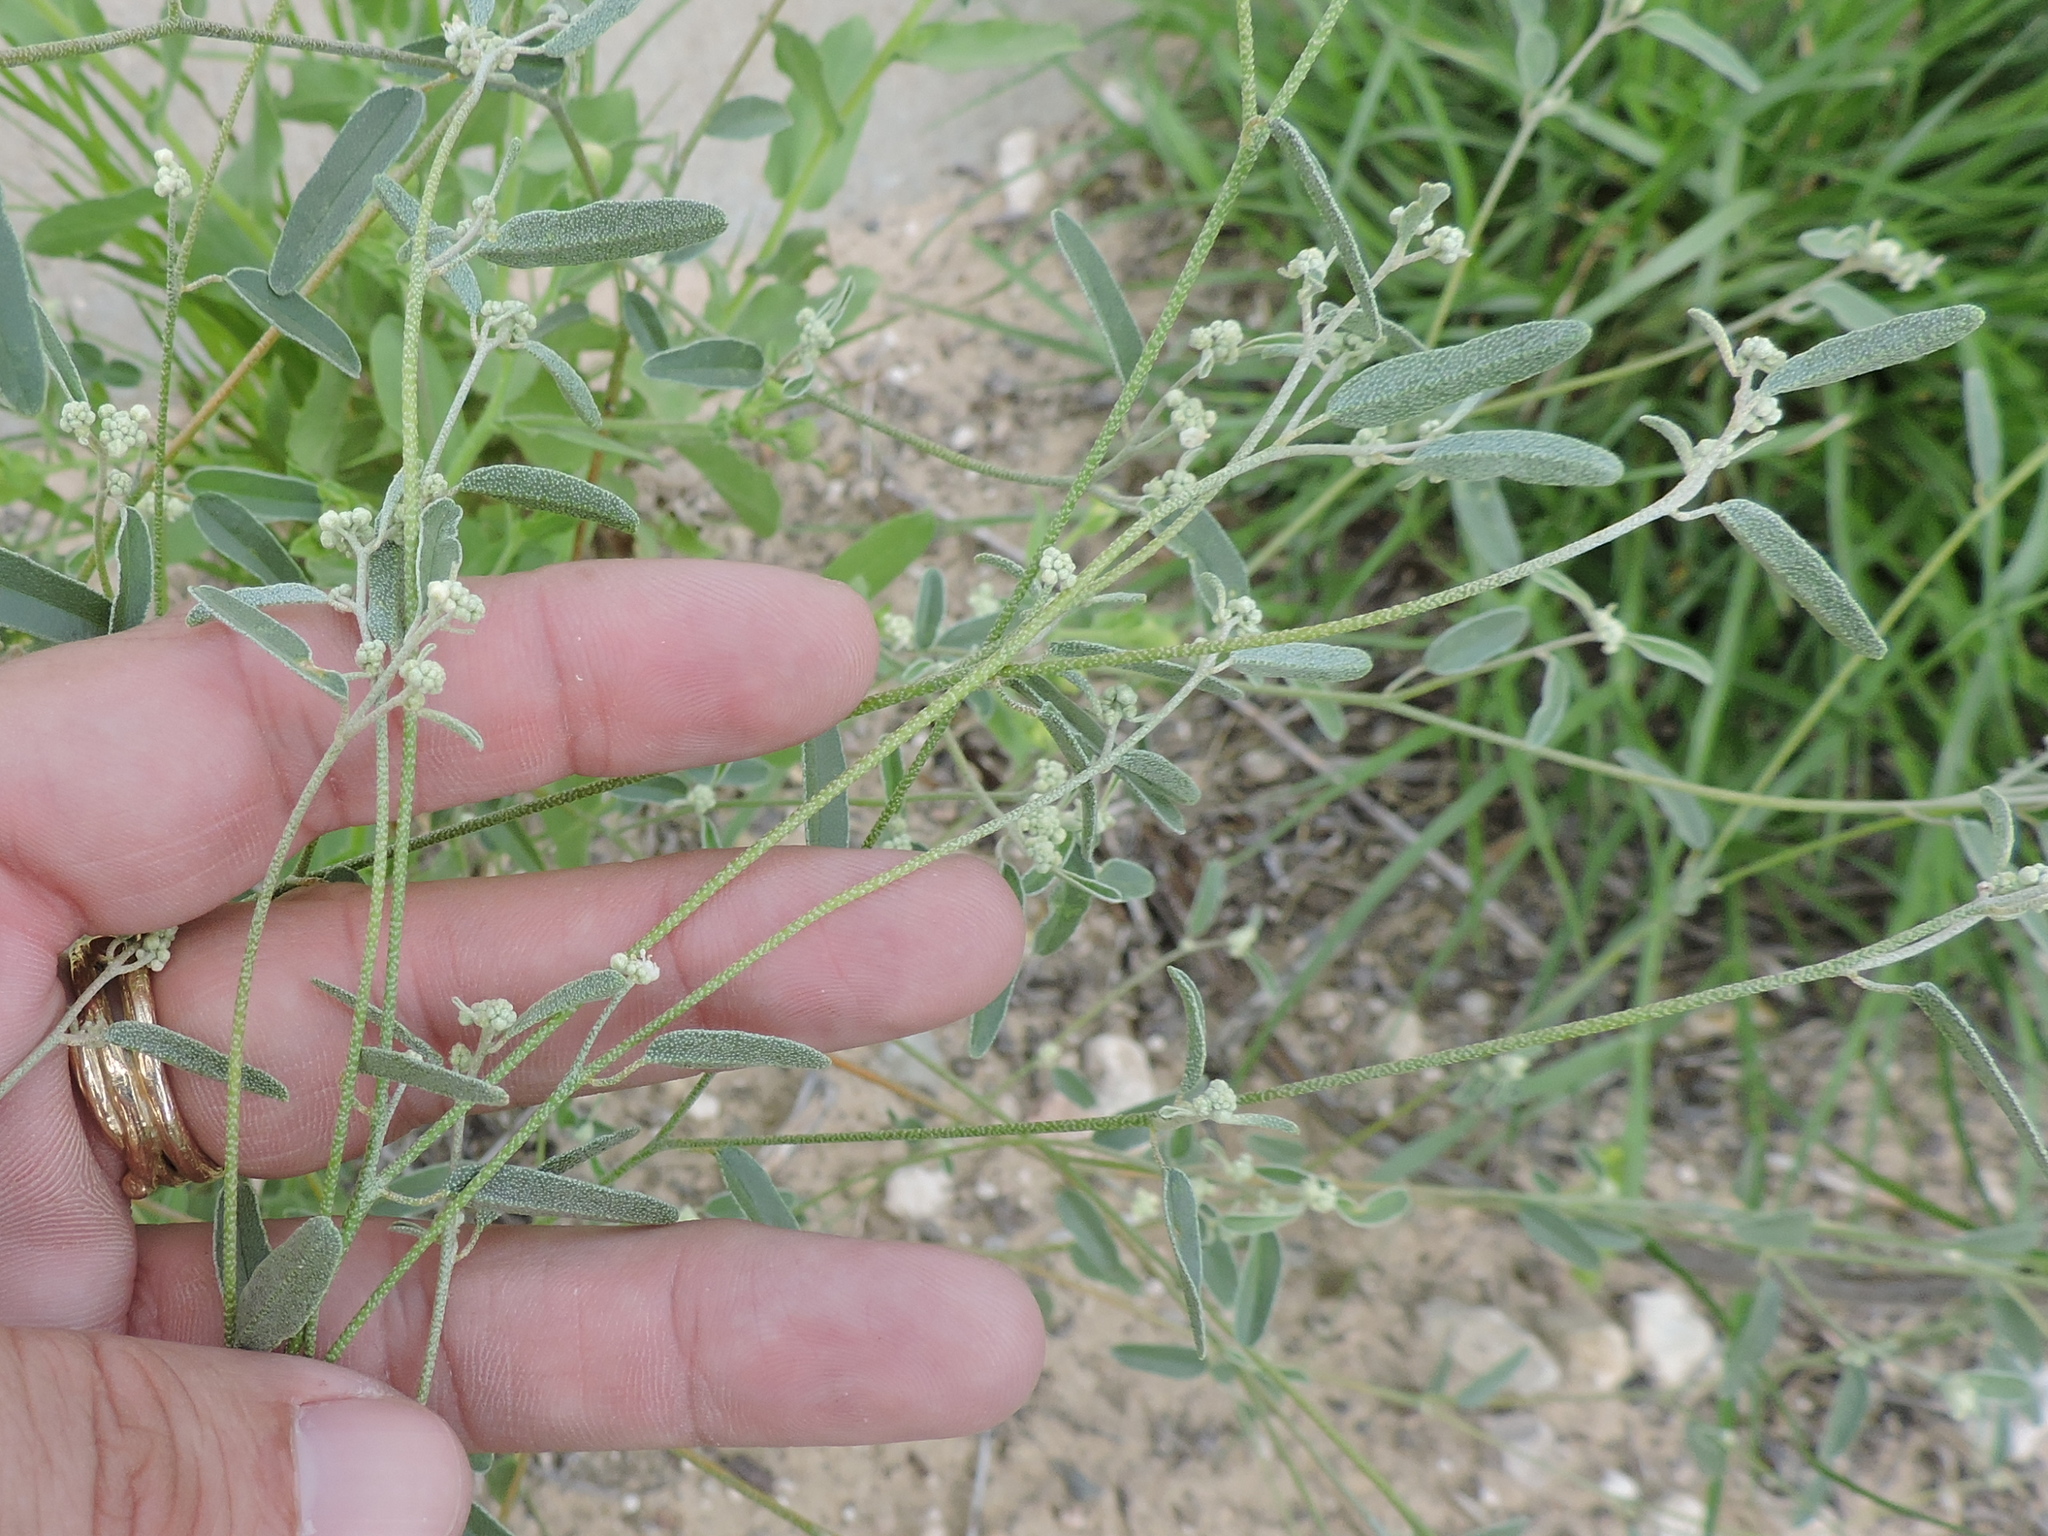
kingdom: Plantae
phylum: Tracheophyta
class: Magnoliopsida
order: Malpighiales
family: Euphorbiaceae
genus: Croton
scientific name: Croton texensis
